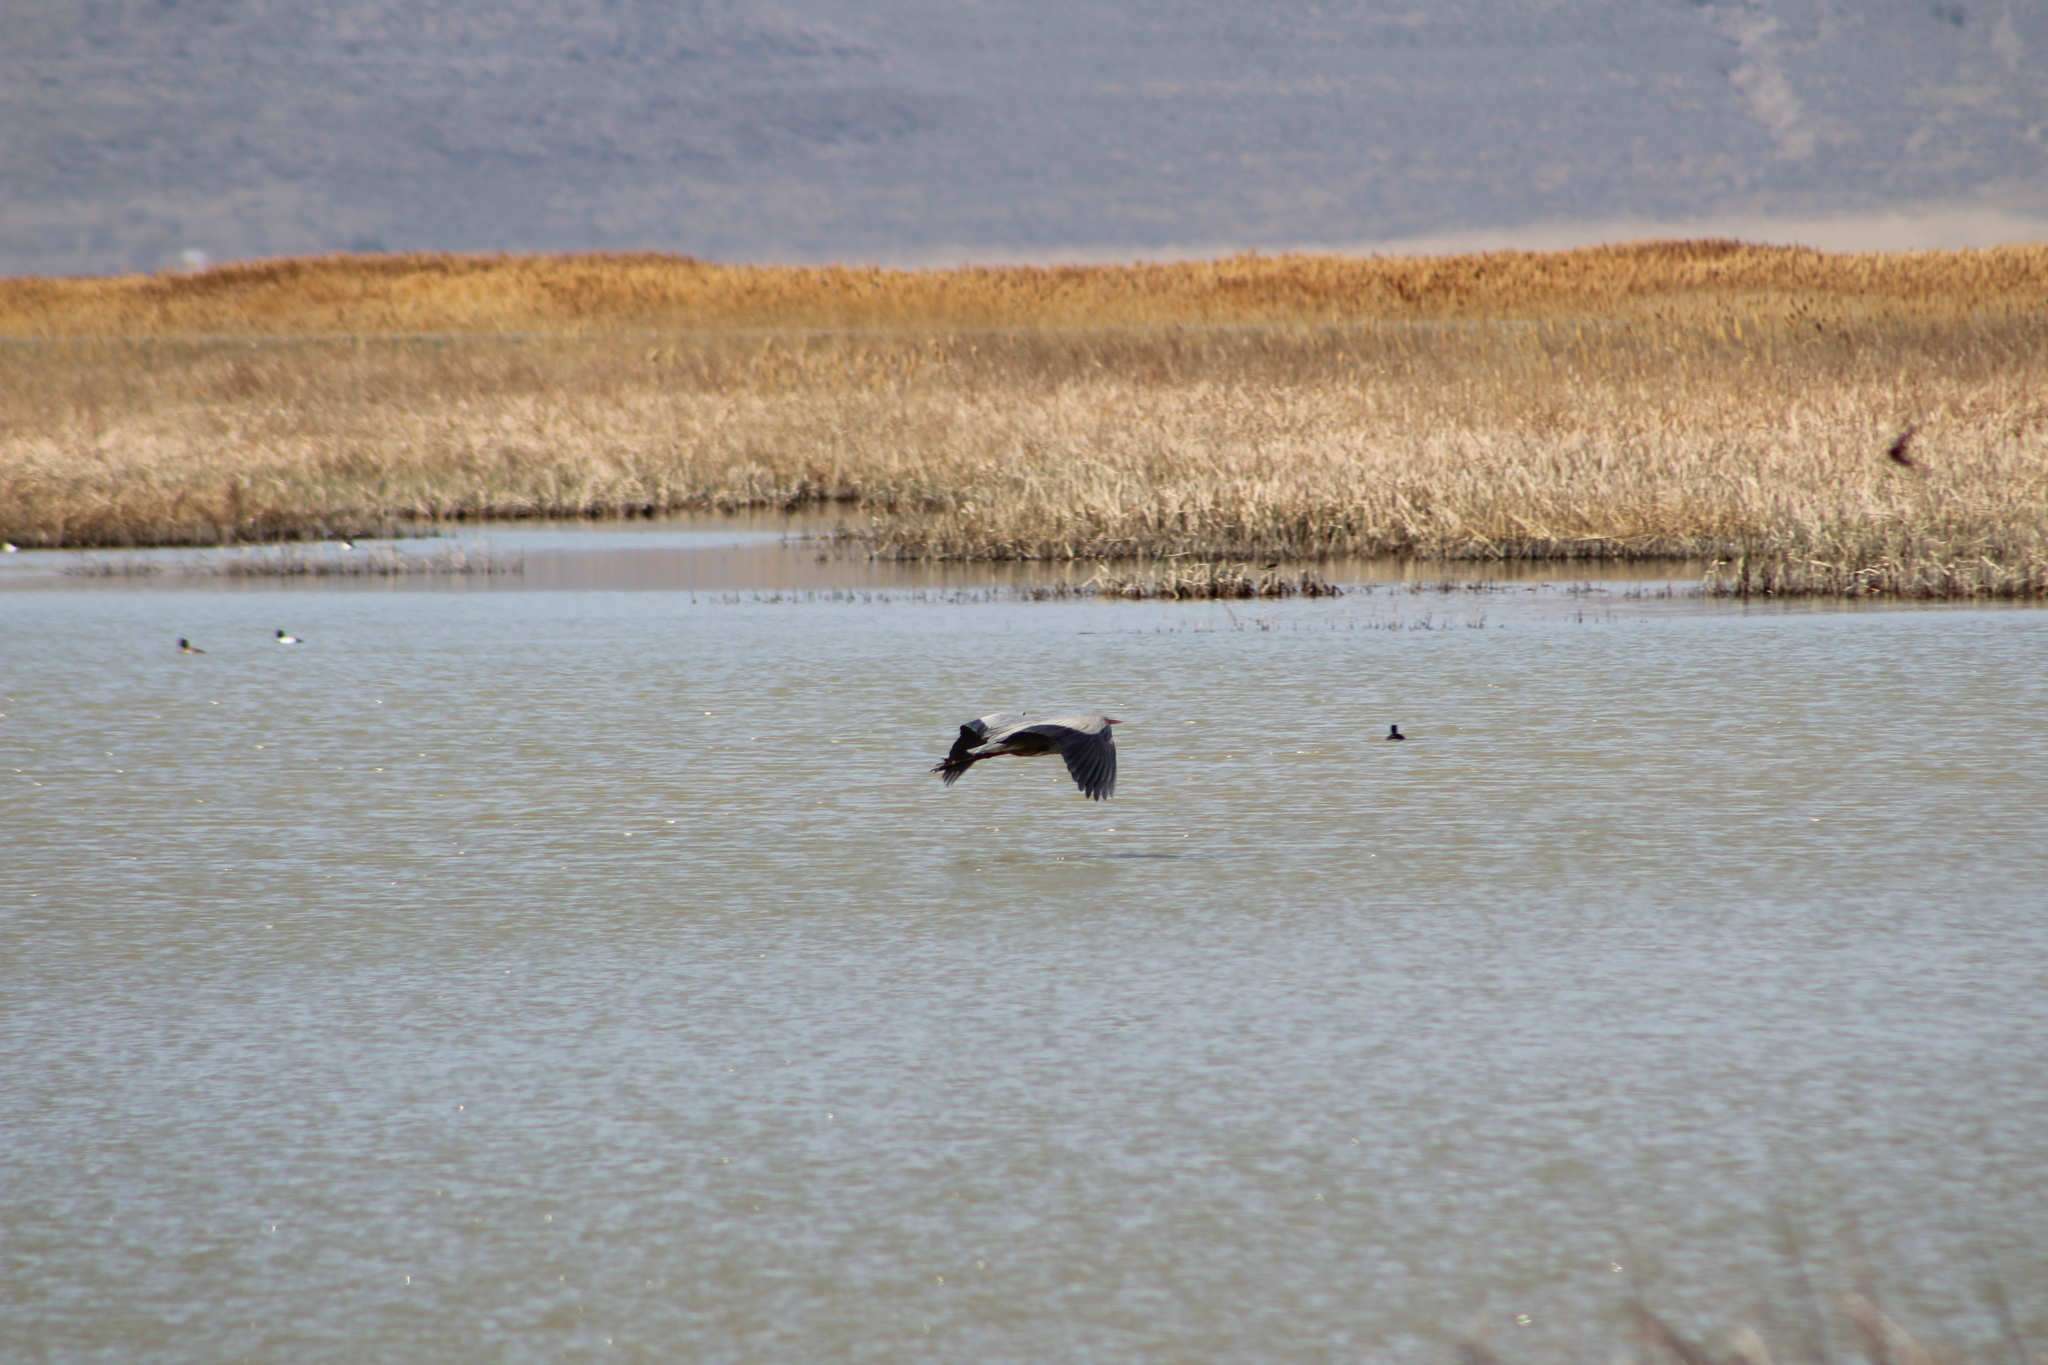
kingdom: Animalia
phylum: Chordata
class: Aves
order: Pelecaniformes
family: Ardeidae
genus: Ardea
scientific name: Ardea herodias
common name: Great blue heron
